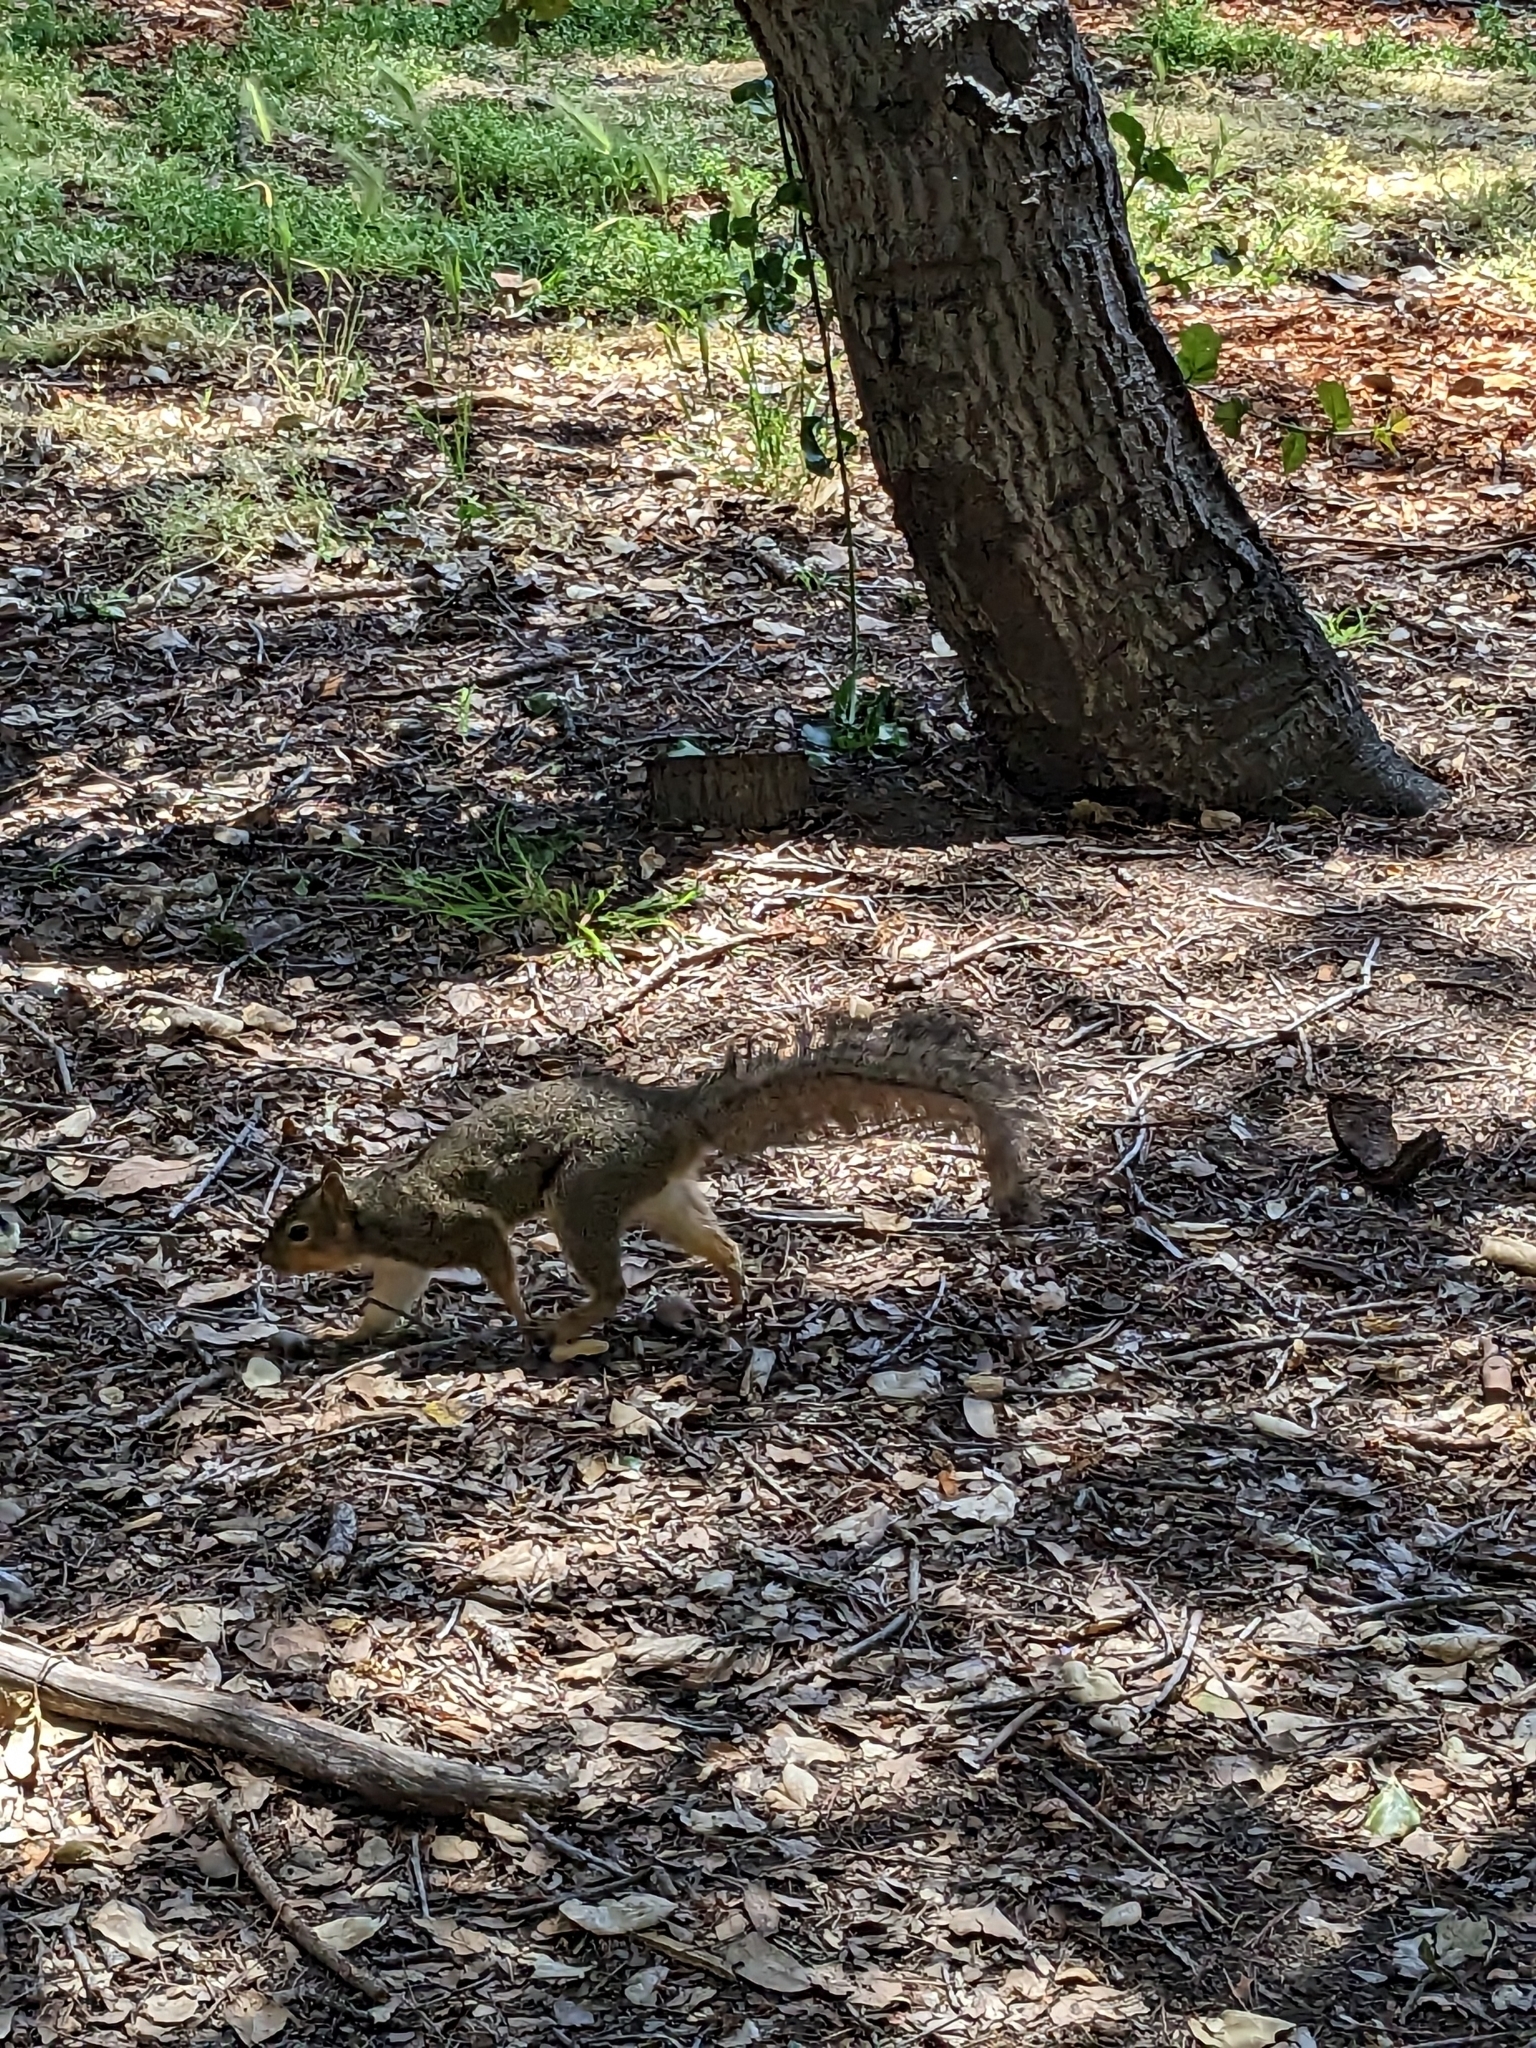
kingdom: Animalia
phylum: Chordata
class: Mammalia
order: Rodentia
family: Sciuridae
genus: Sciurus
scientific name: Sciurus niger
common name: Fox squirrel
